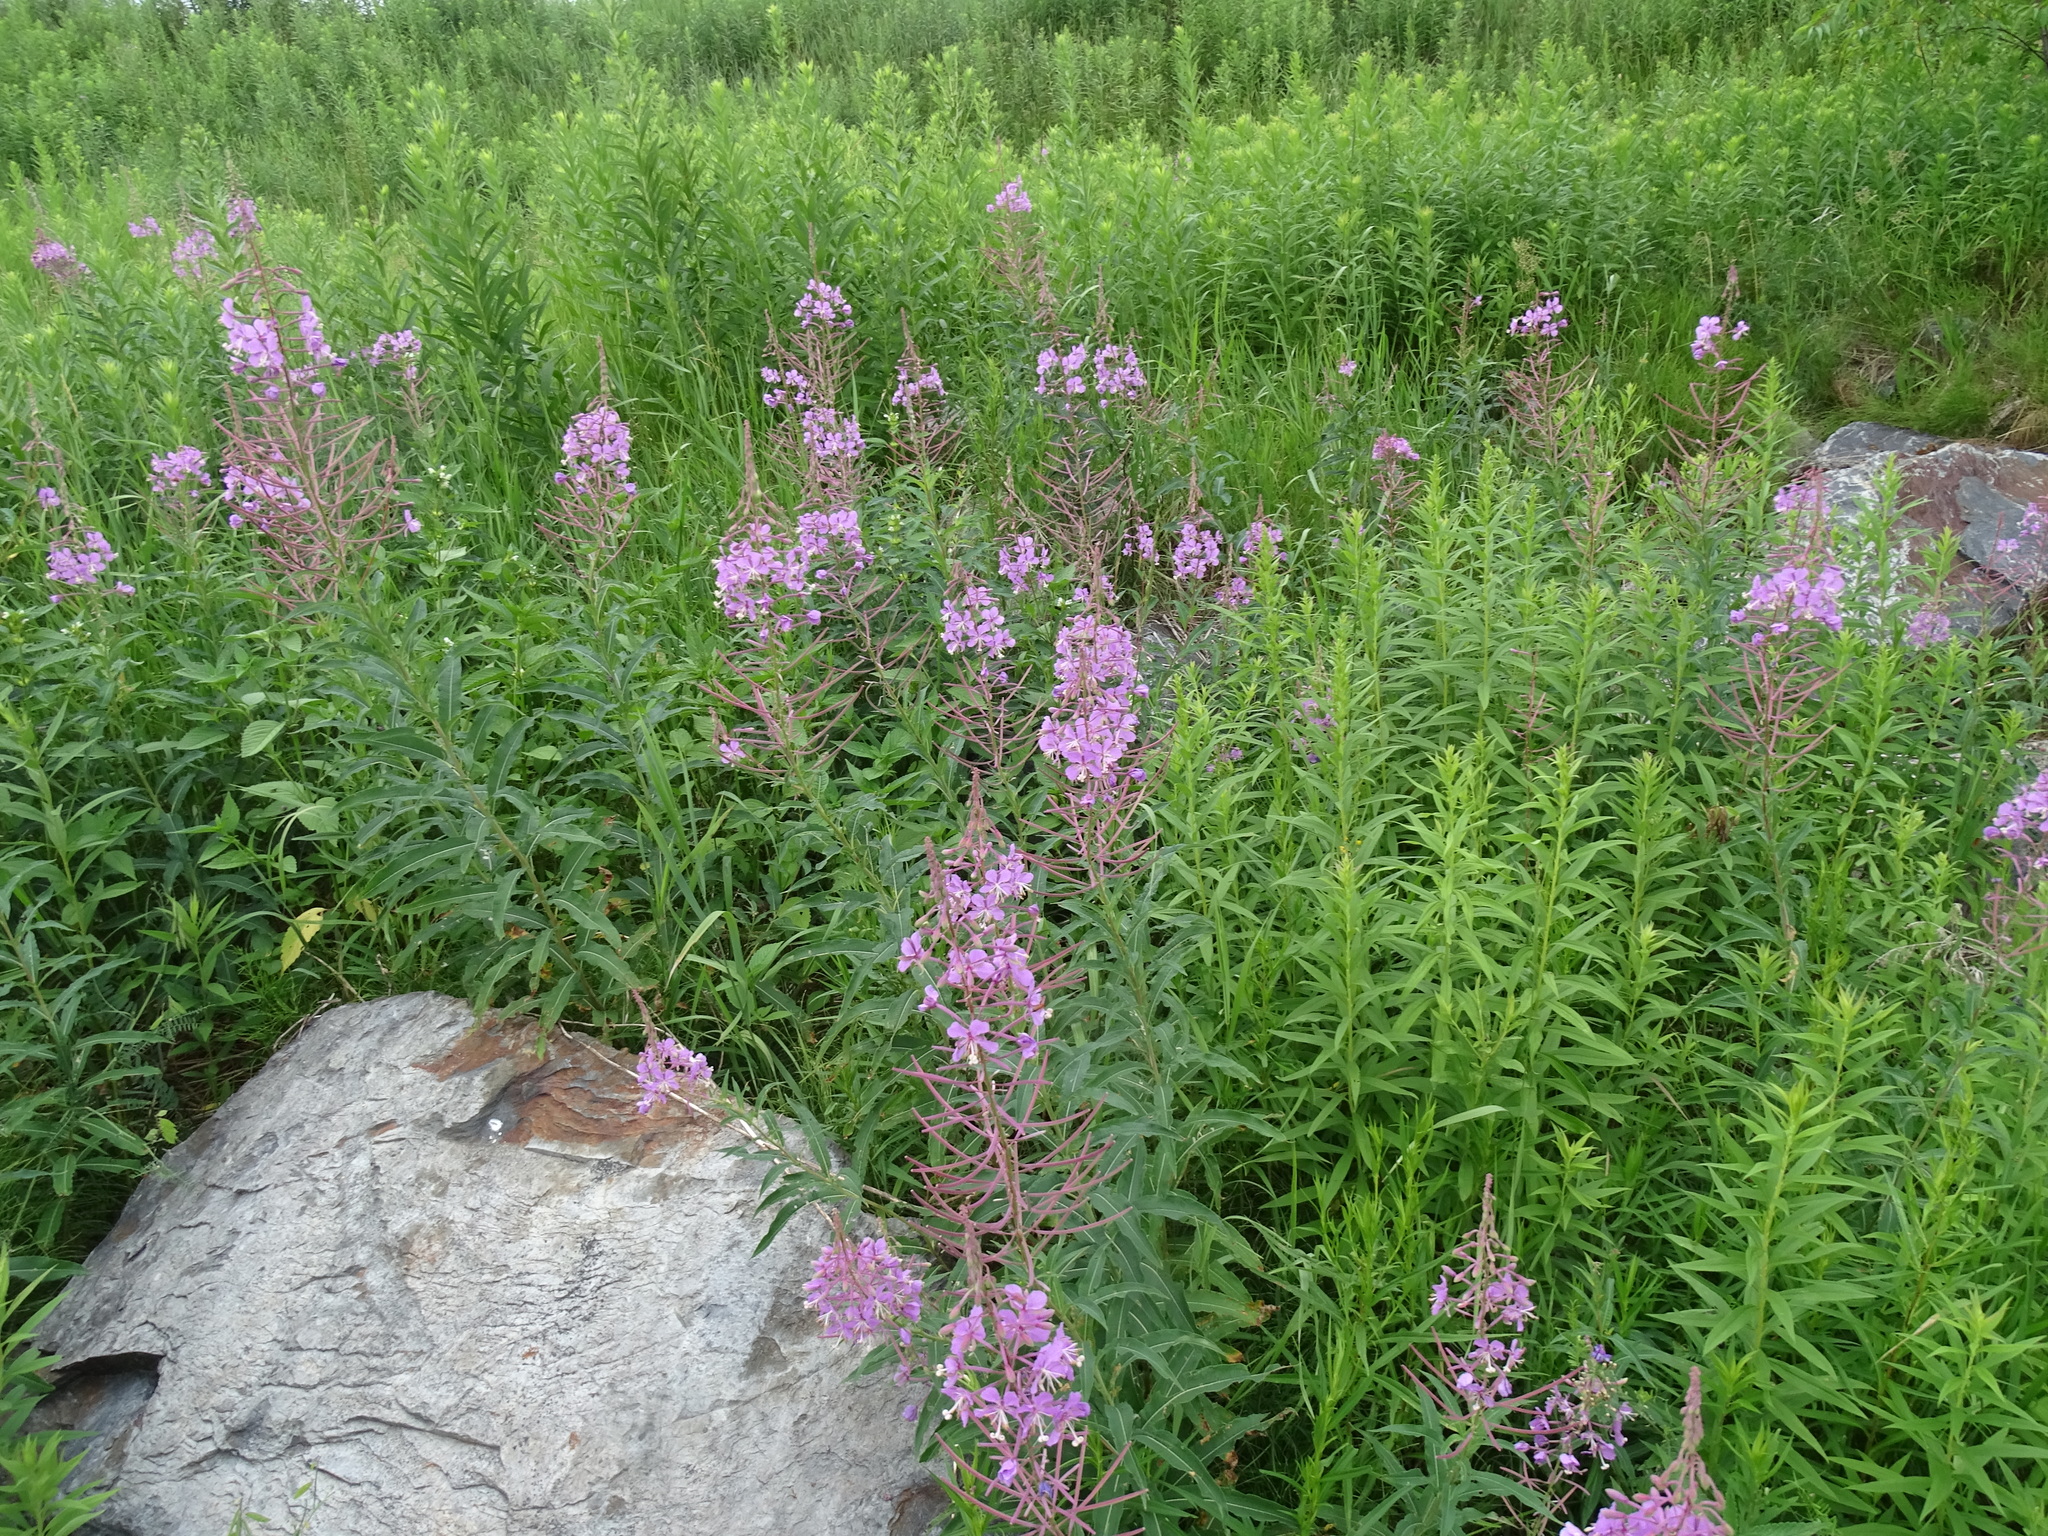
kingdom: Plantae
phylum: Tracheophyta
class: Magnoliopsida
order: Myrtales
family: Onagraceae
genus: Chamaenerion
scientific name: Chamaenerion angustifolium
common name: Fireweed
